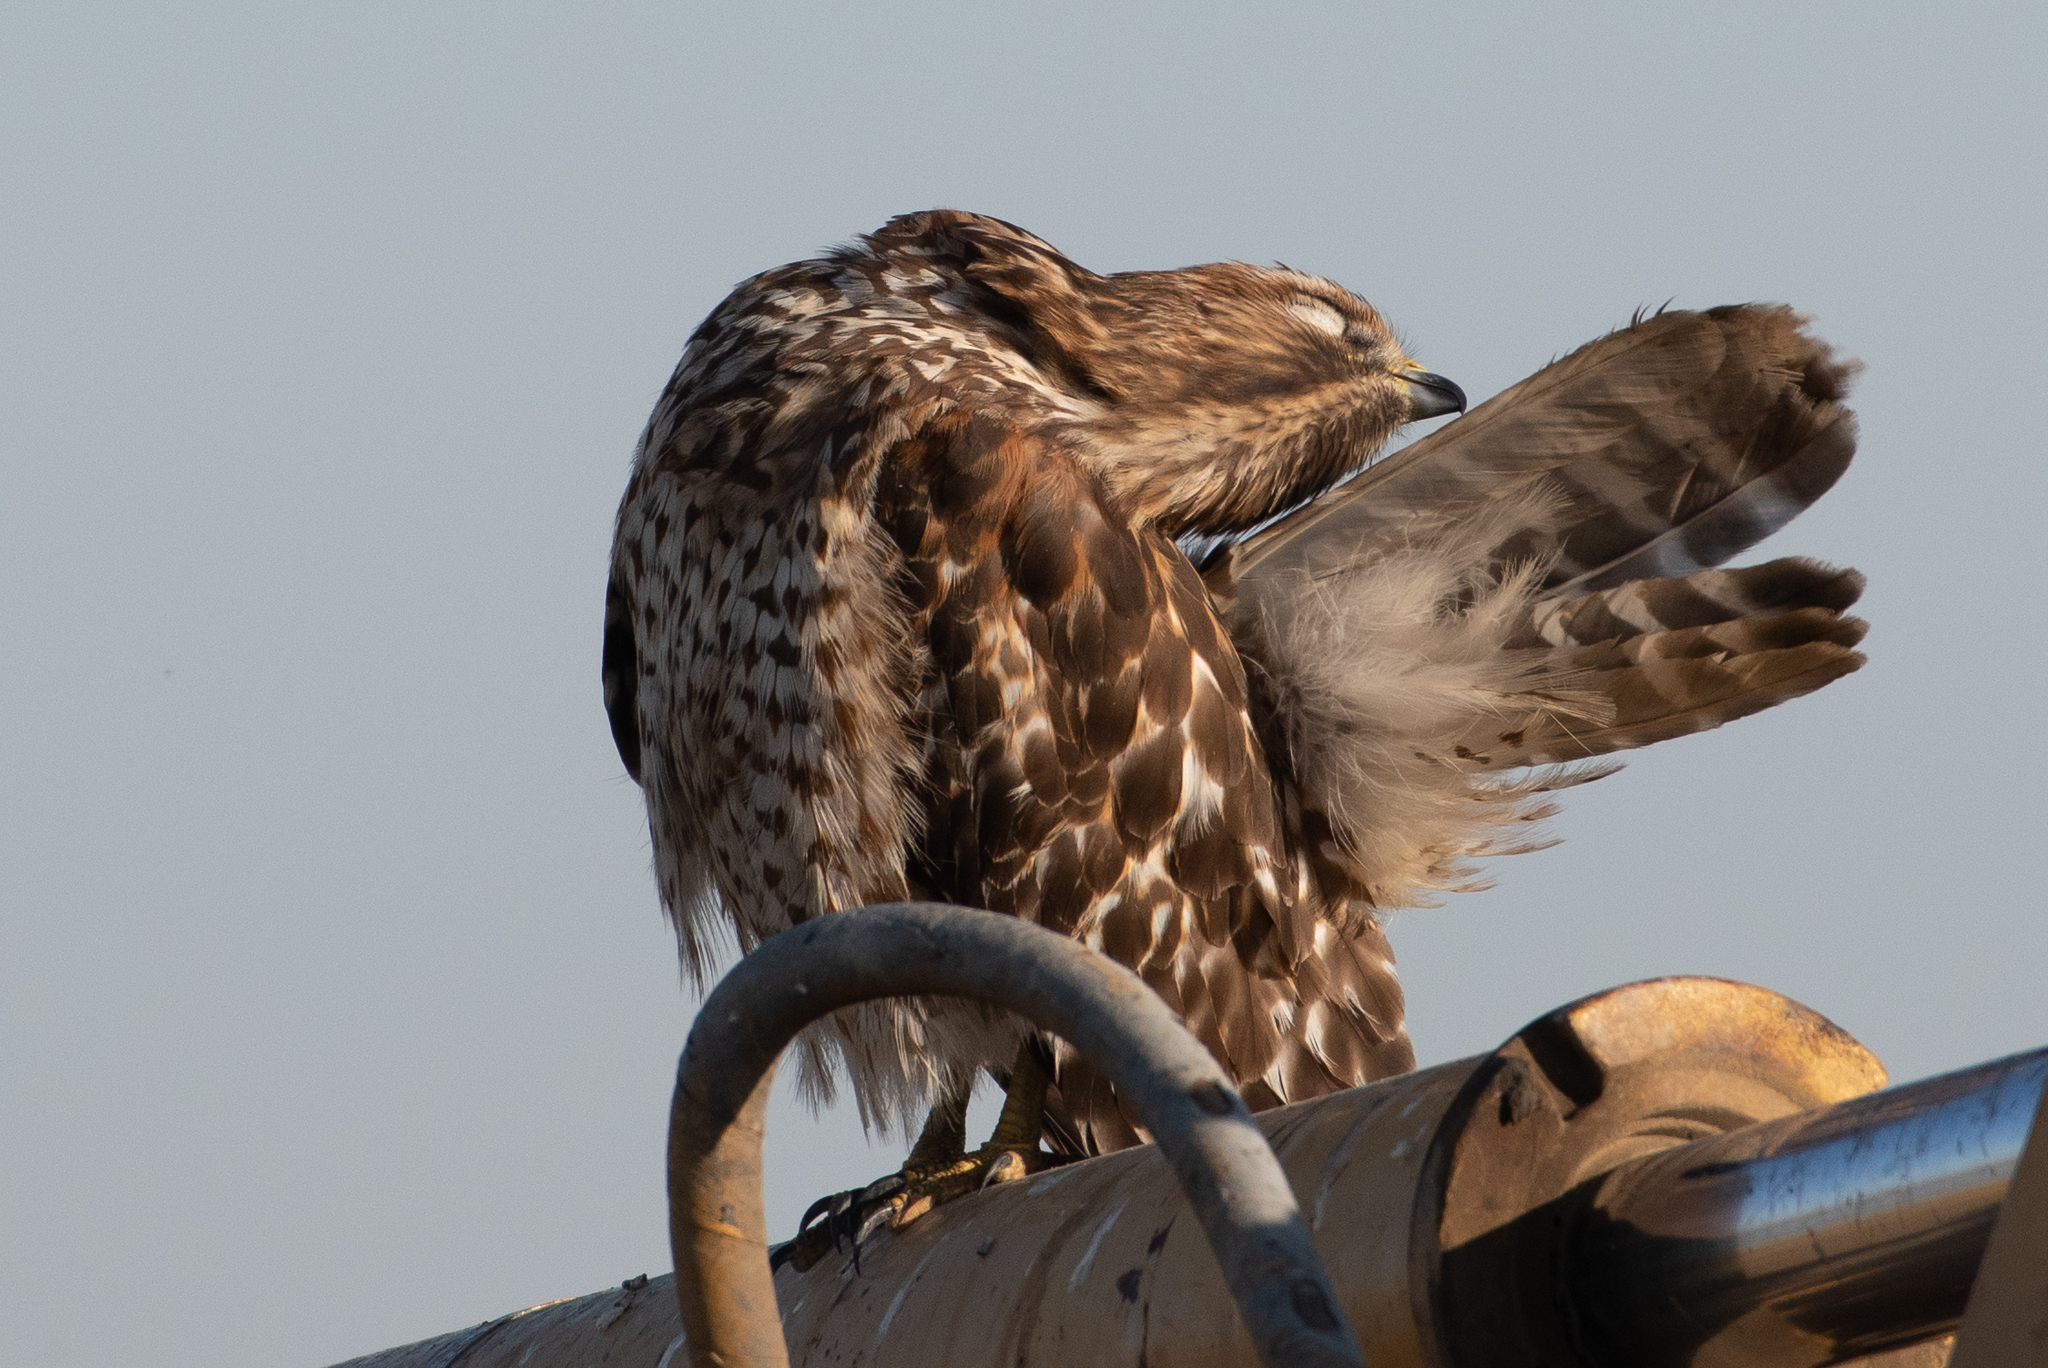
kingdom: Animalia
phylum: Chordata
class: Aves
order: Accipitriformes
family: Accipitridae
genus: Buteo
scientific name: Buteo lineatus
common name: Red-shouldered hawk
